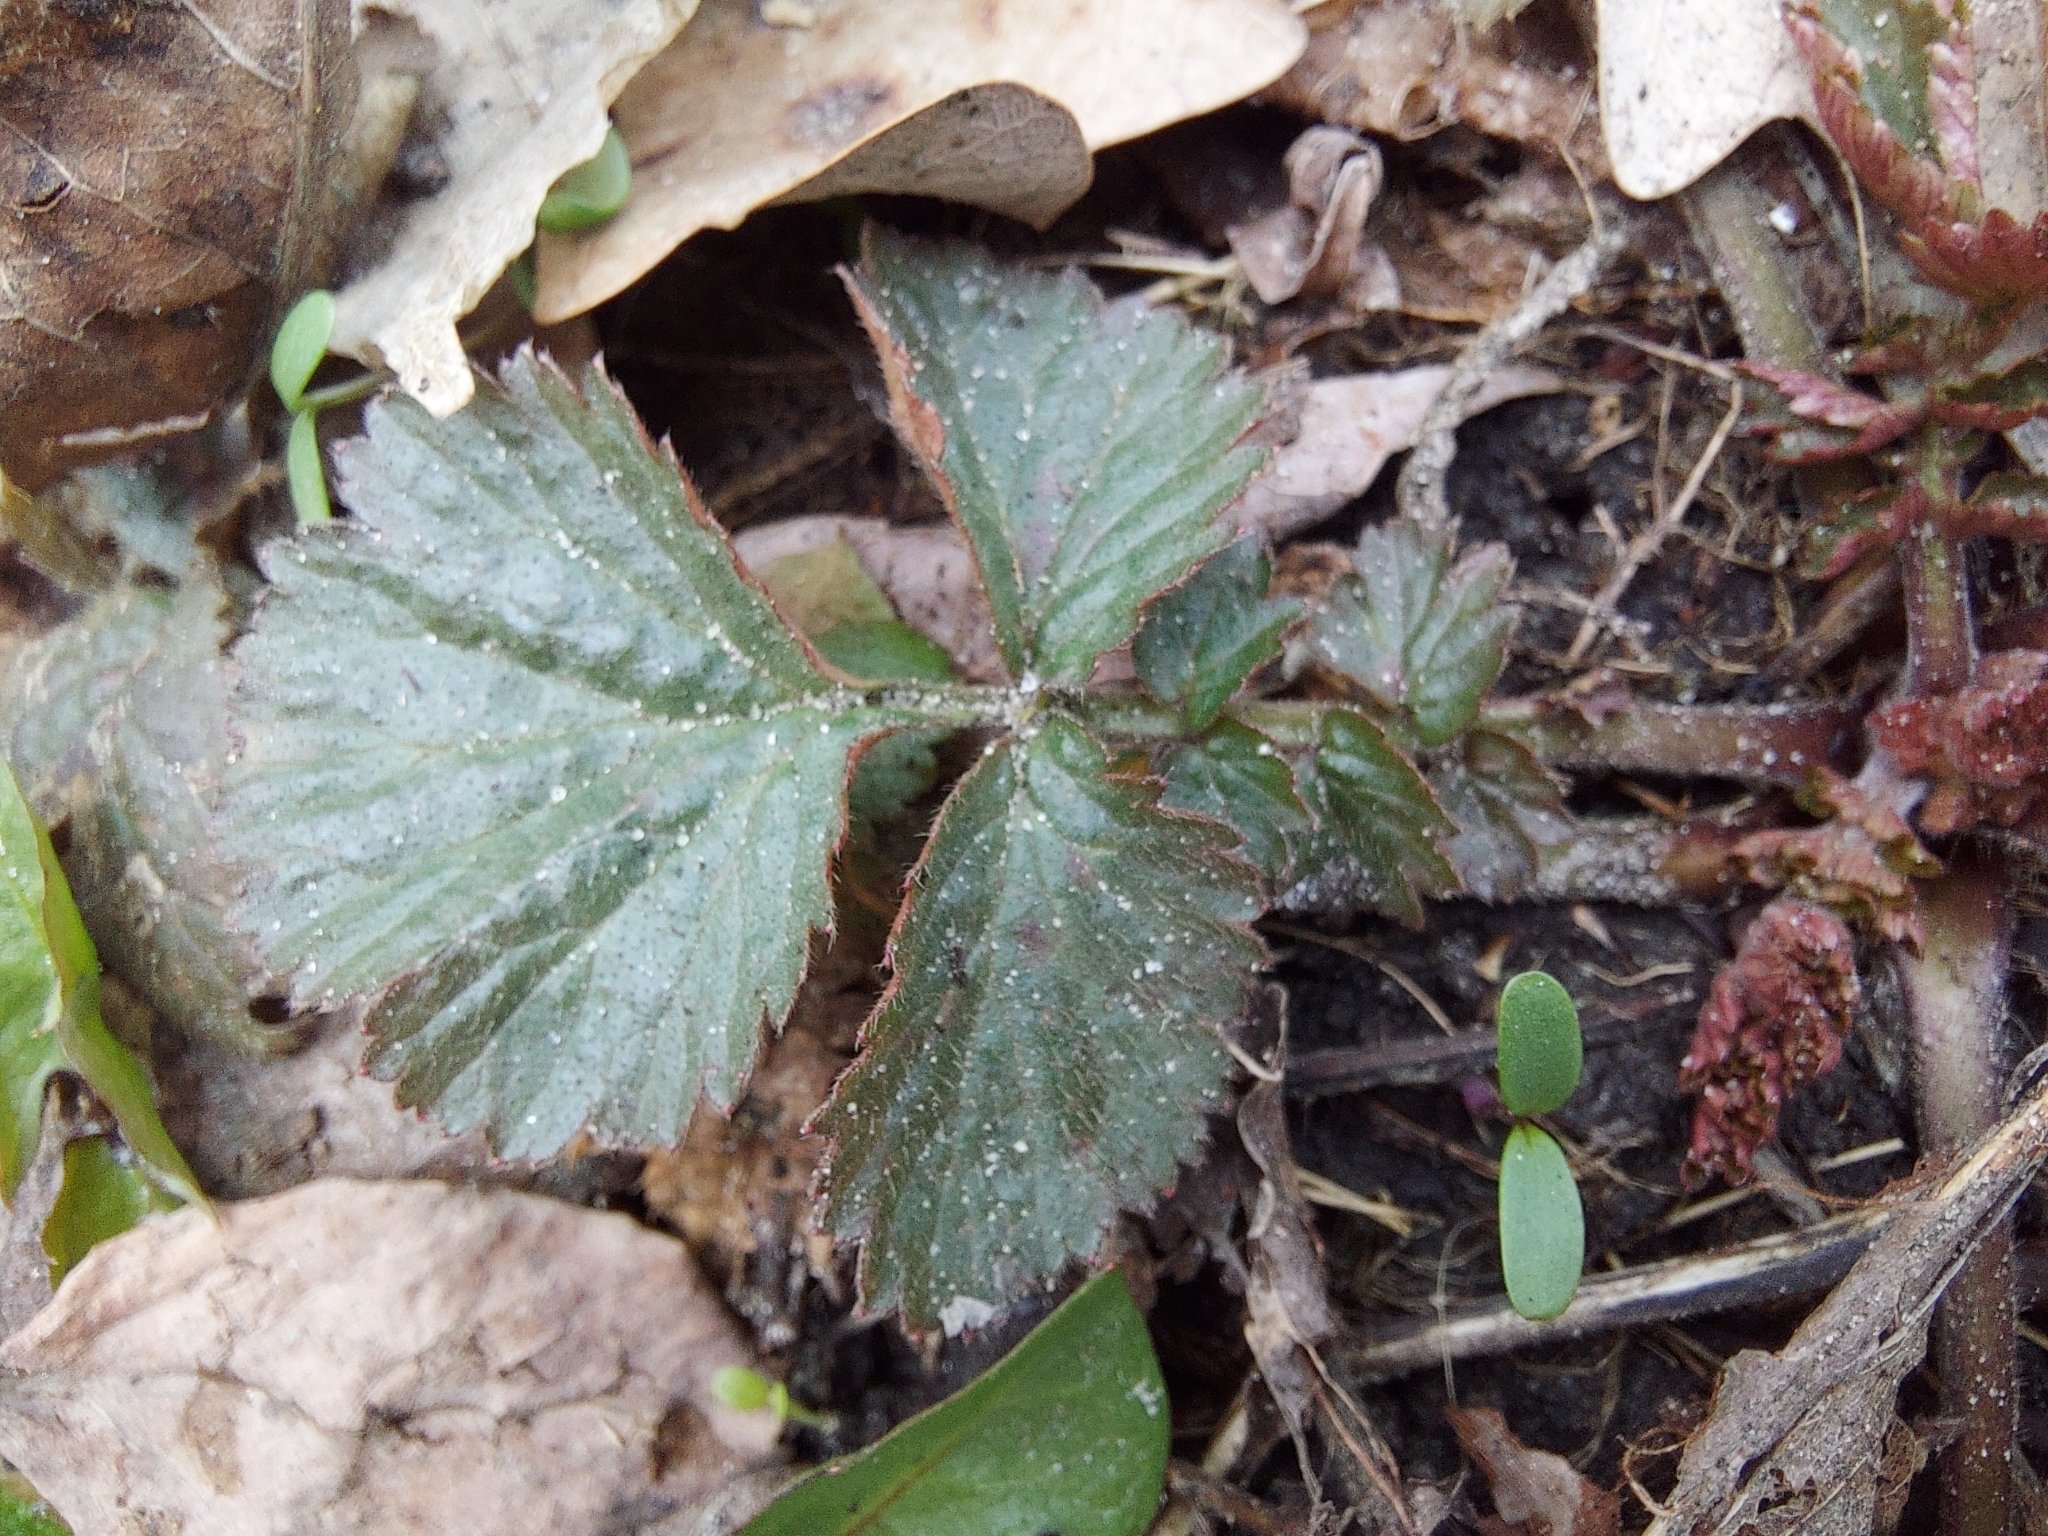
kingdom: Plantae
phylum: Tracheophyta
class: Magnoliopsida
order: Rosales
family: Rosaceae
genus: Geum
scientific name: Geum urbanum
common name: Wood avens
